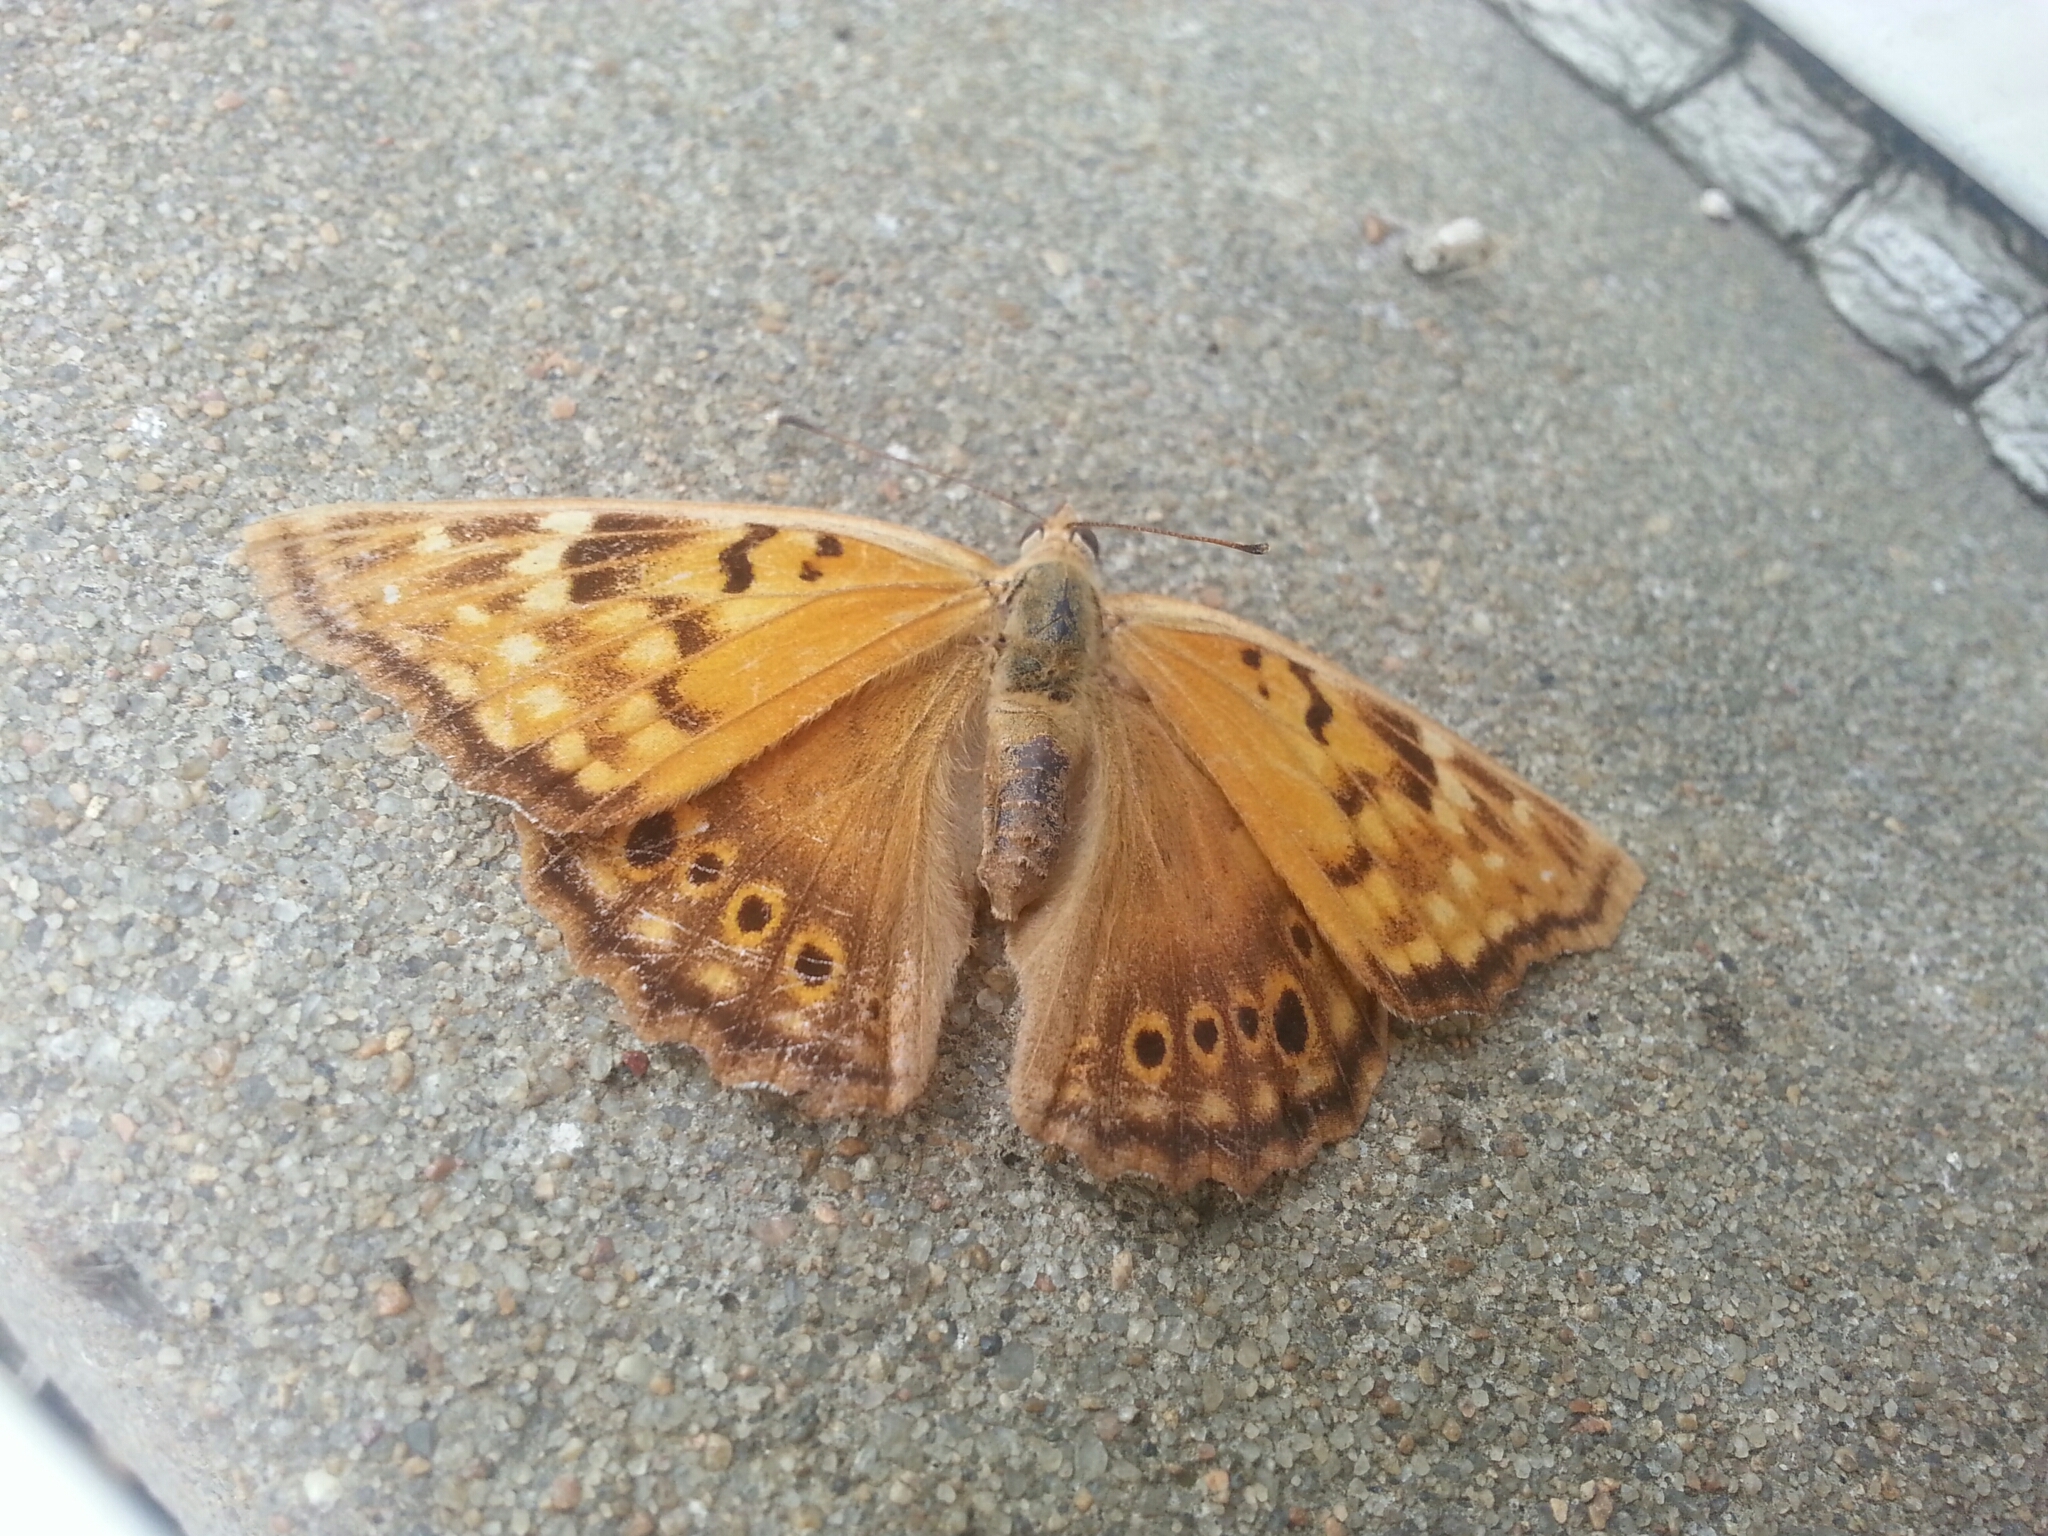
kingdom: Animalia
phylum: Arthropoda
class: Insecta
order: Lepidoptera
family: Nymphalidae
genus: Asterocampa
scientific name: Asterocampa clyton
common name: Tawny emperor
